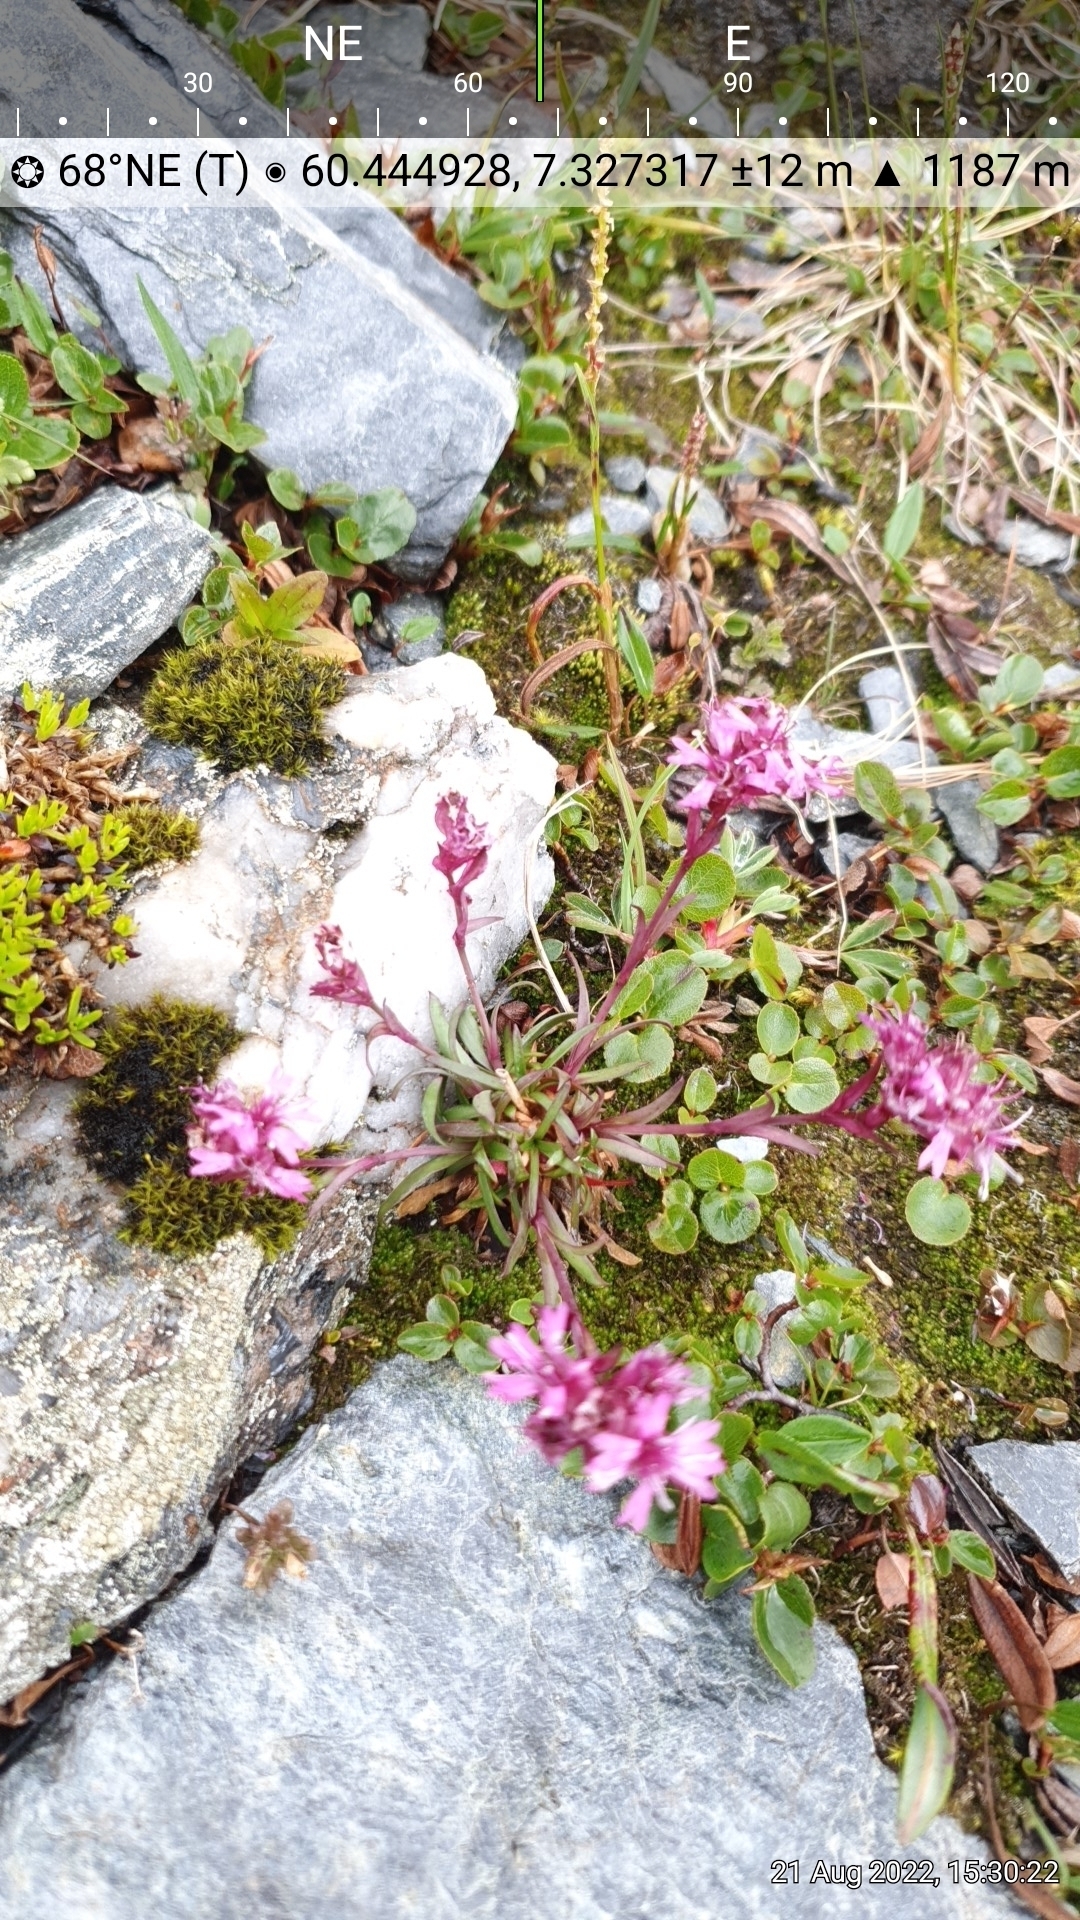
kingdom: Plantae
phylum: Tracheophyta
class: Magnoliopsida
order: Caryophyllales
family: Caryophyllaceae
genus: Viscaria
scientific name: Viscaria alpina
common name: Alpine campion
